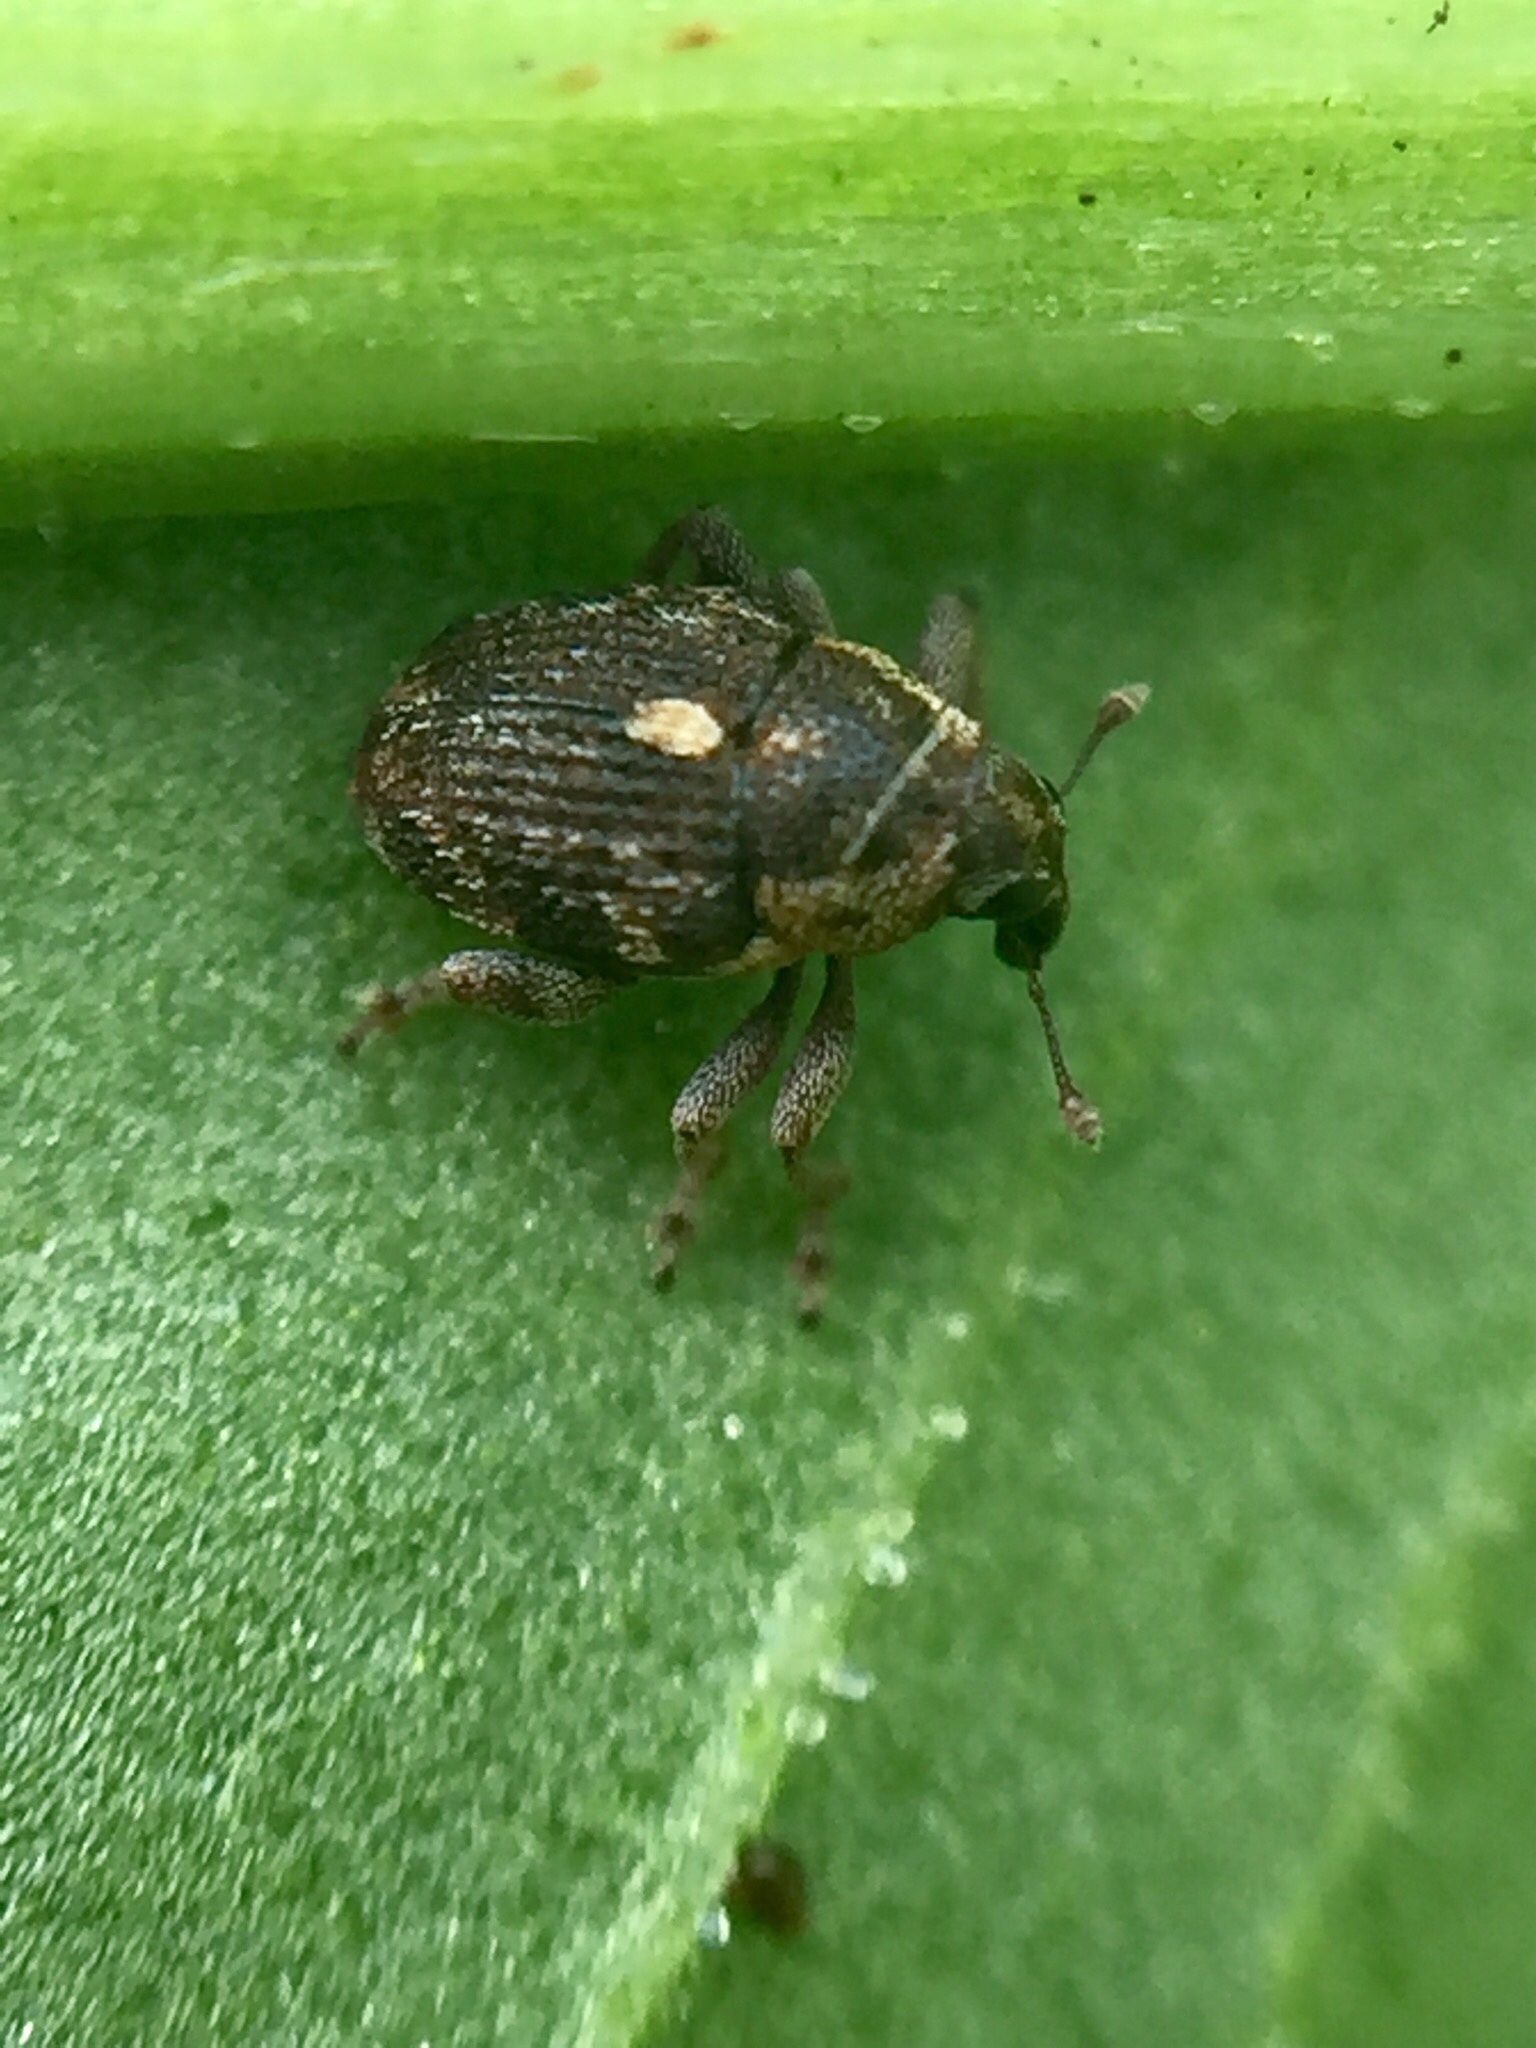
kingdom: Animalia
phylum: Arthropoda
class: Insecta
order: Coleoptera
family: Curculionidae
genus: Rhinoncus
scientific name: Rhinoncus australis
